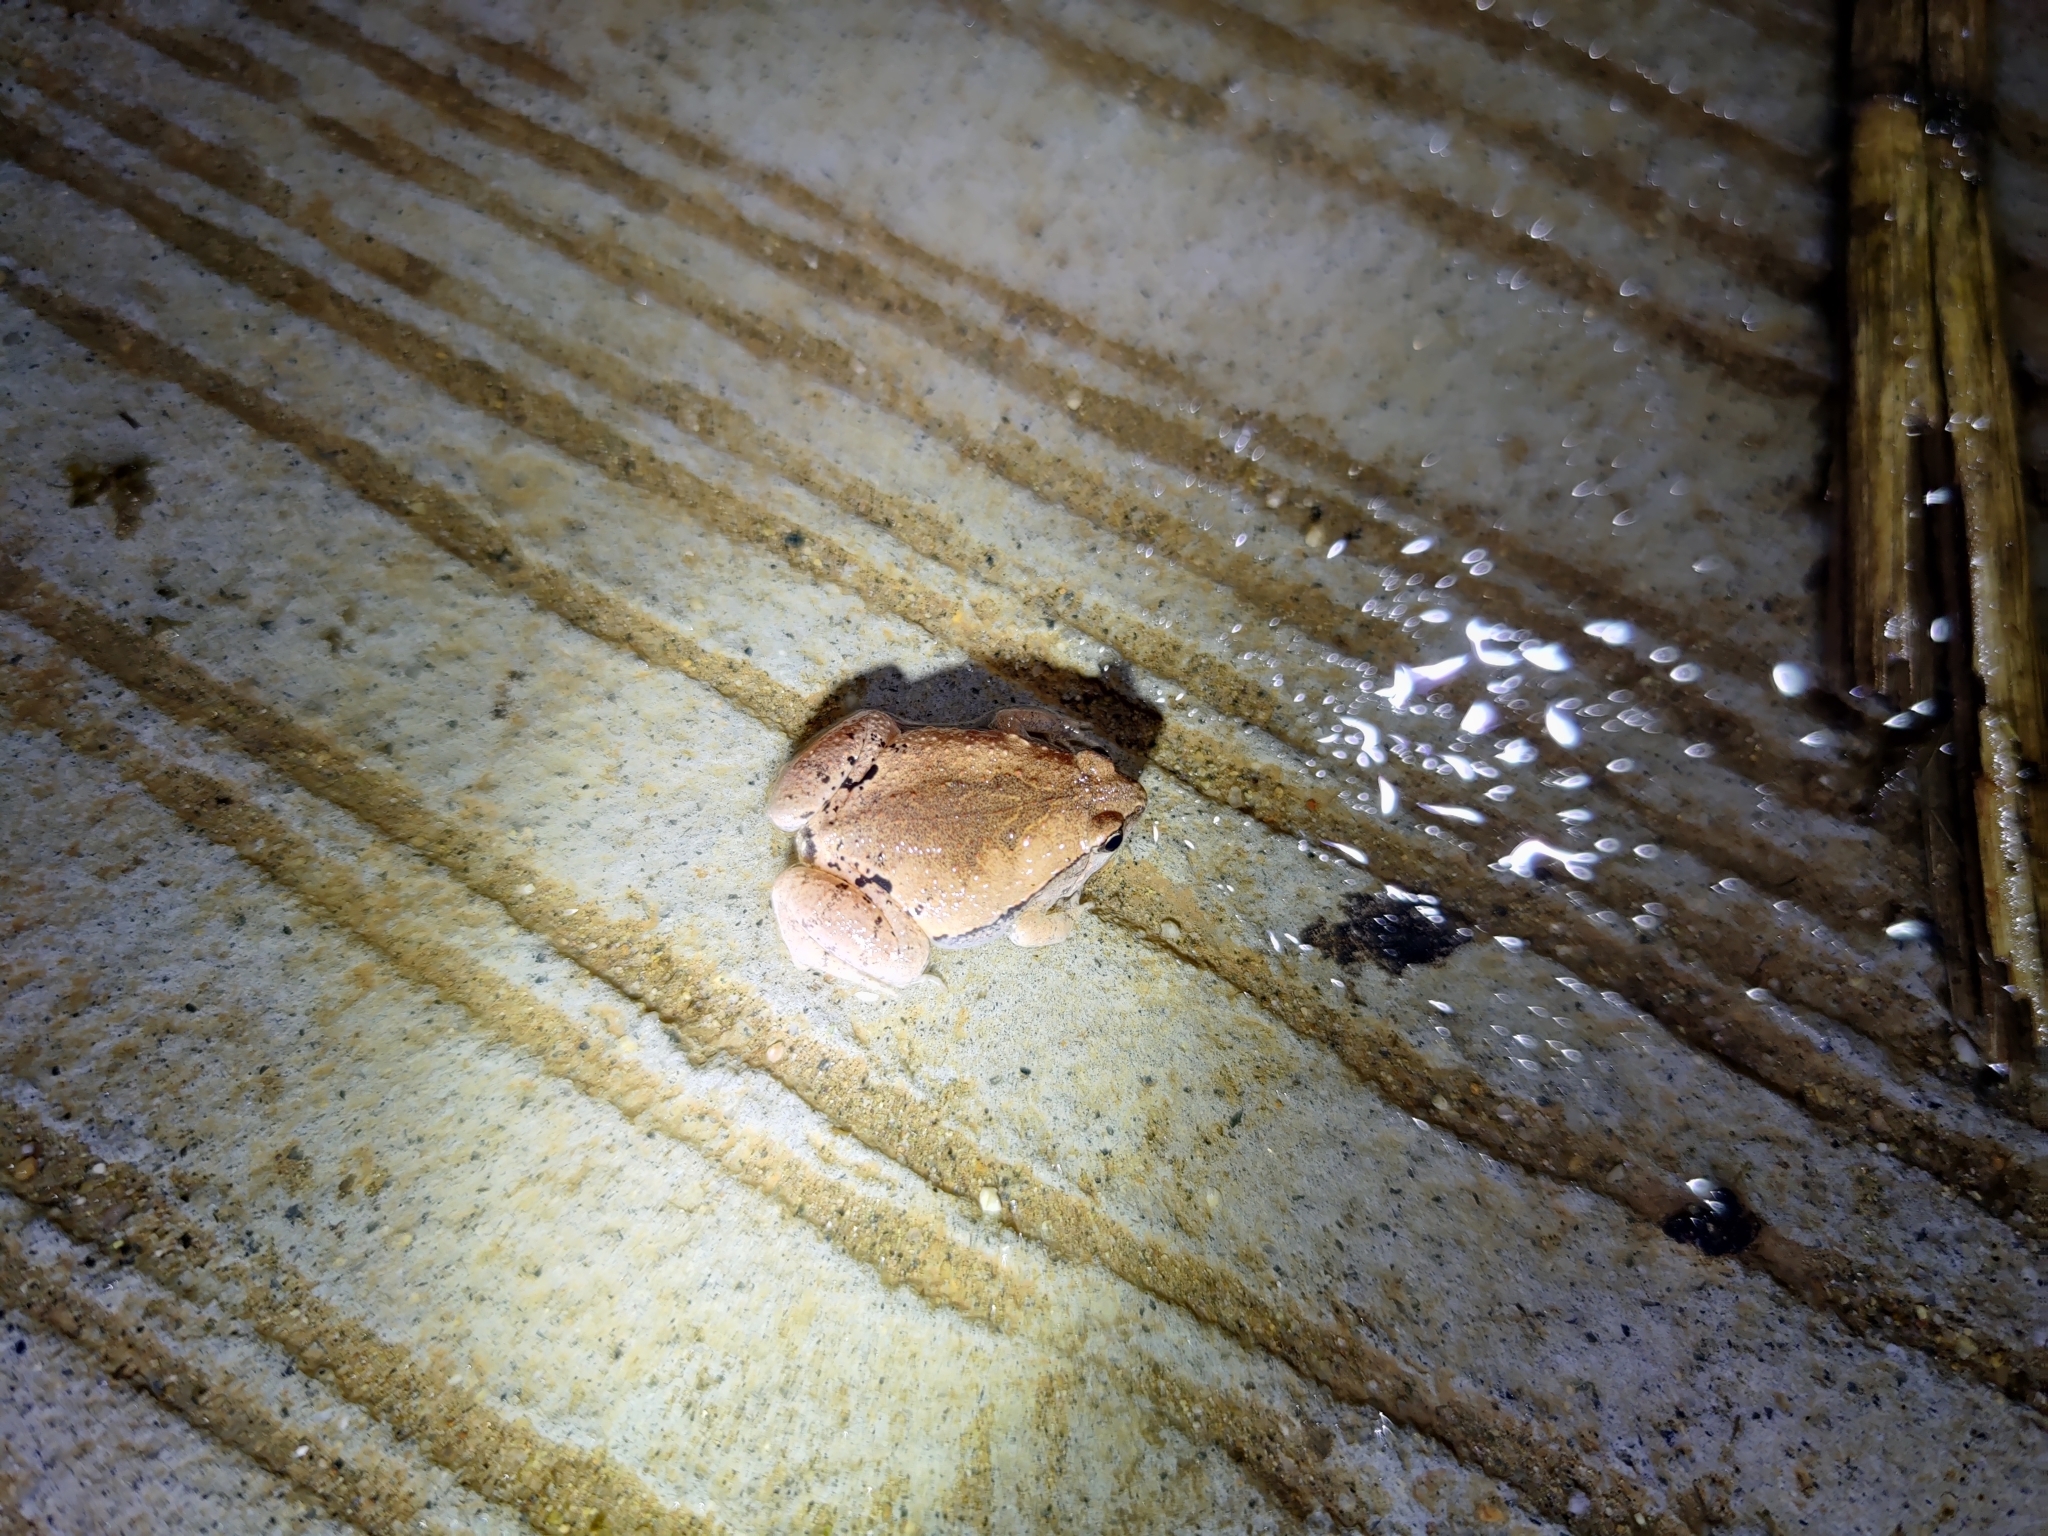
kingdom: Animalia
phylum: Chordata
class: Amphibia
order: Anura
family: Microhylidae
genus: Microhyla
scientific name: Microhyla rubra
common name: Guangdong rice frog
